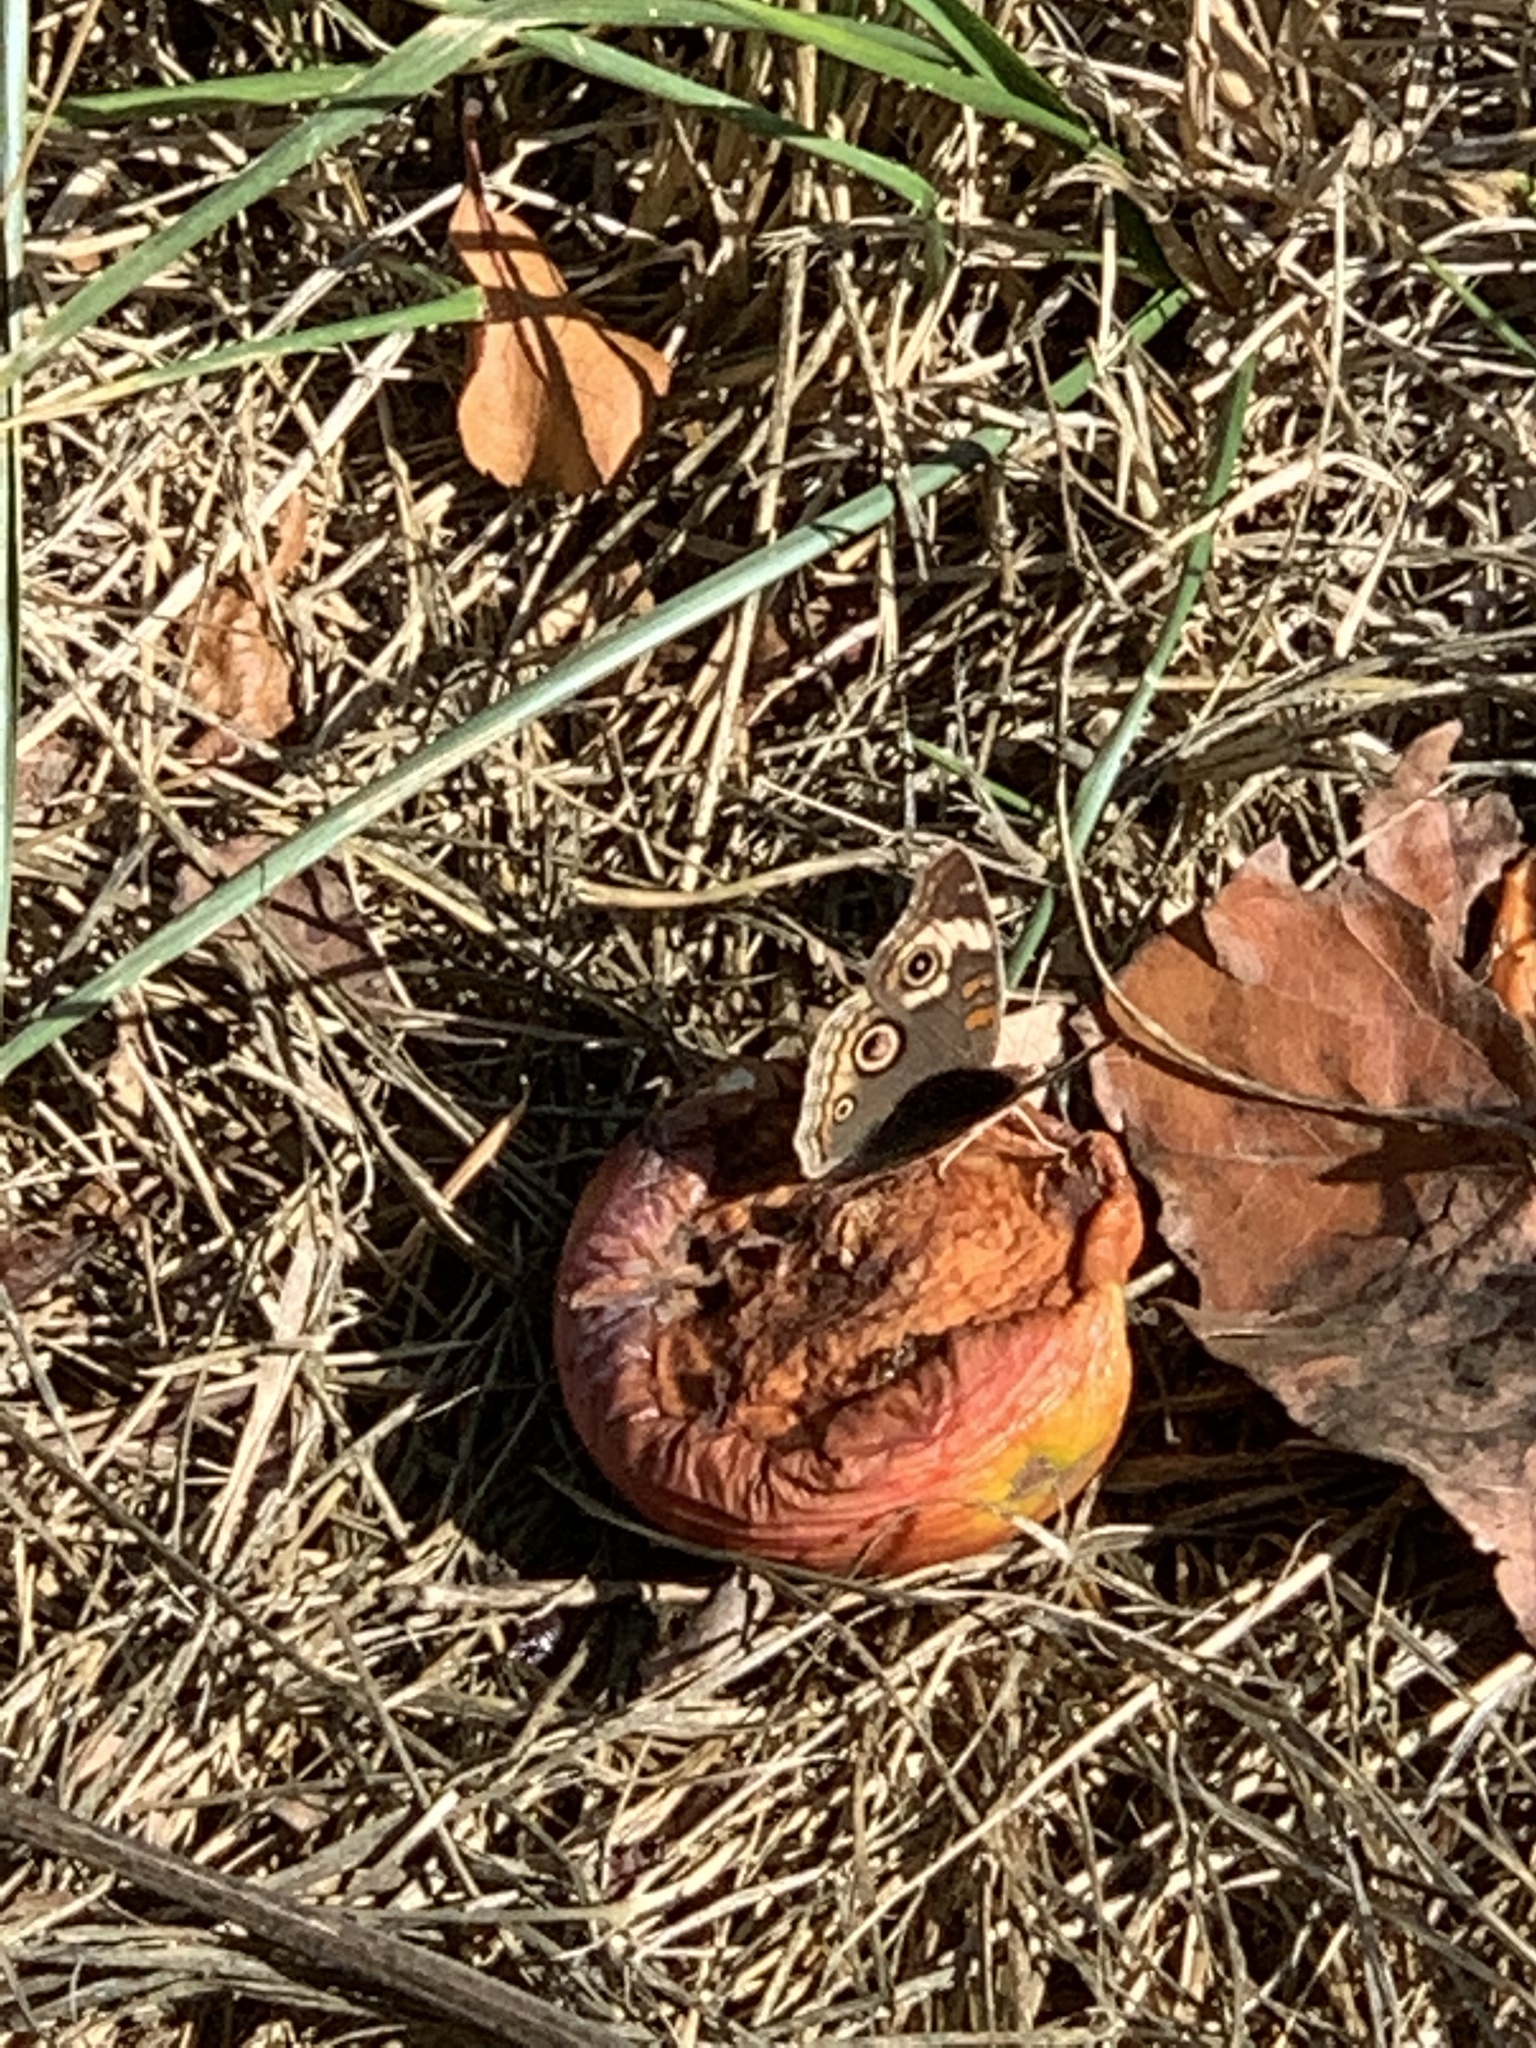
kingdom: Animalia
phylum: Arthropoda
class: Insecta
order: Lepidoptera
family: Nymphalidae
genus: Junonia
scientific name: Junonia grisea
